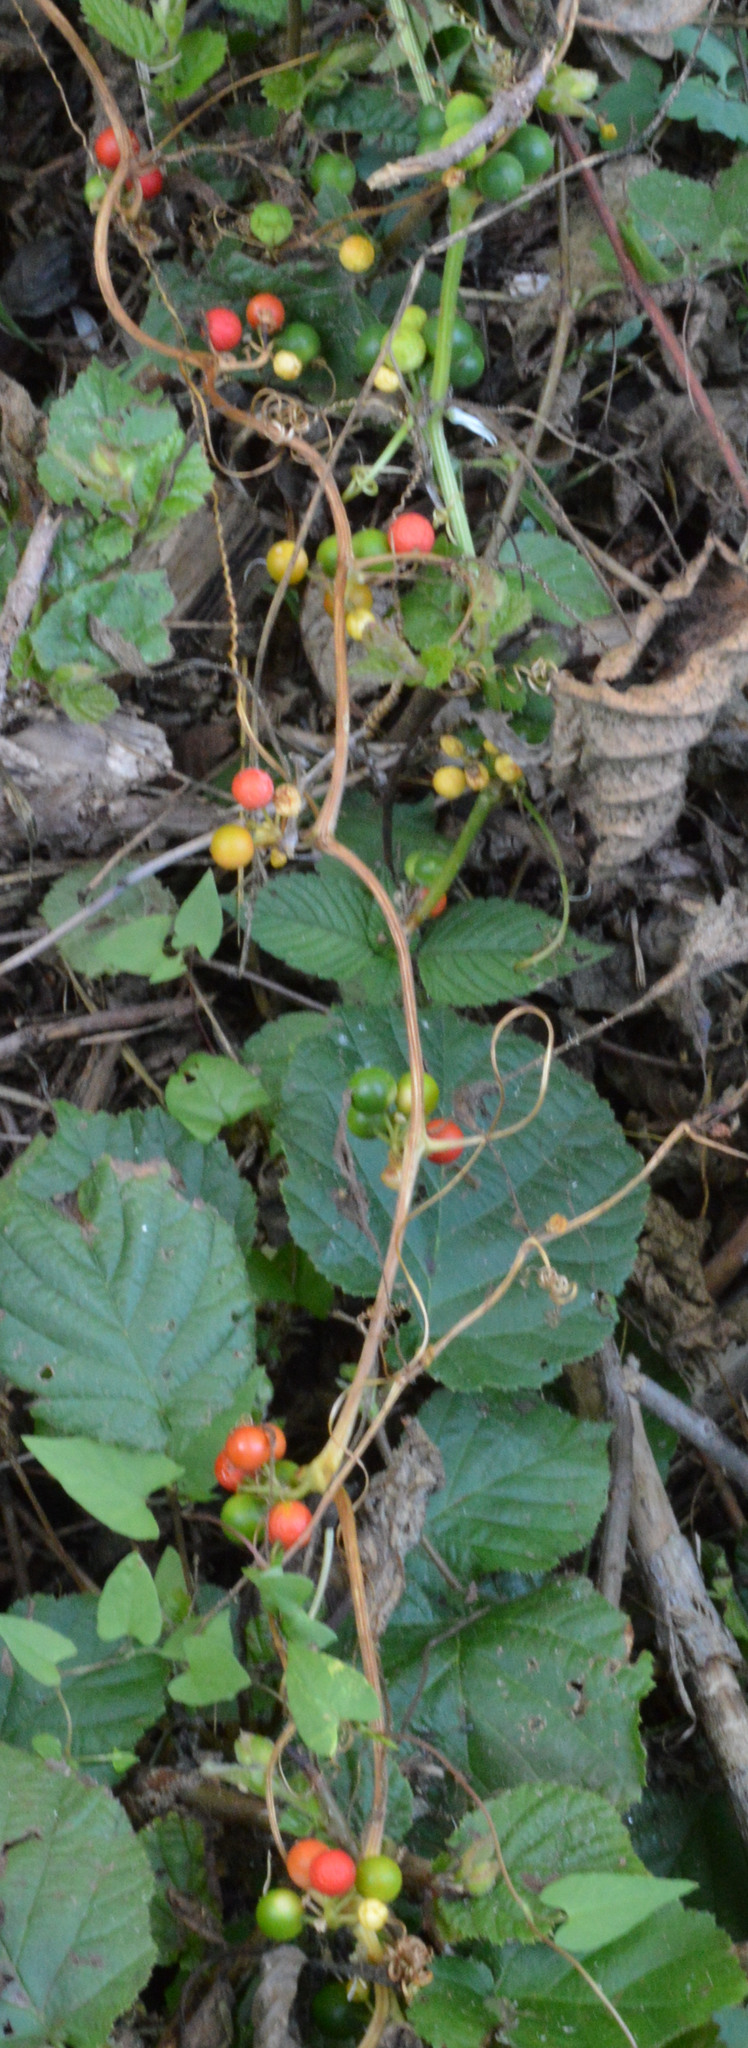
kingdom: Plantae
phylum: Tracheophyta
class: Magnoliopsida
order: Cucurbitales
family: Cucurbitaceae
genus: Bryonia
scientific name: Bryonia cretica
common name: Cretan bryony
